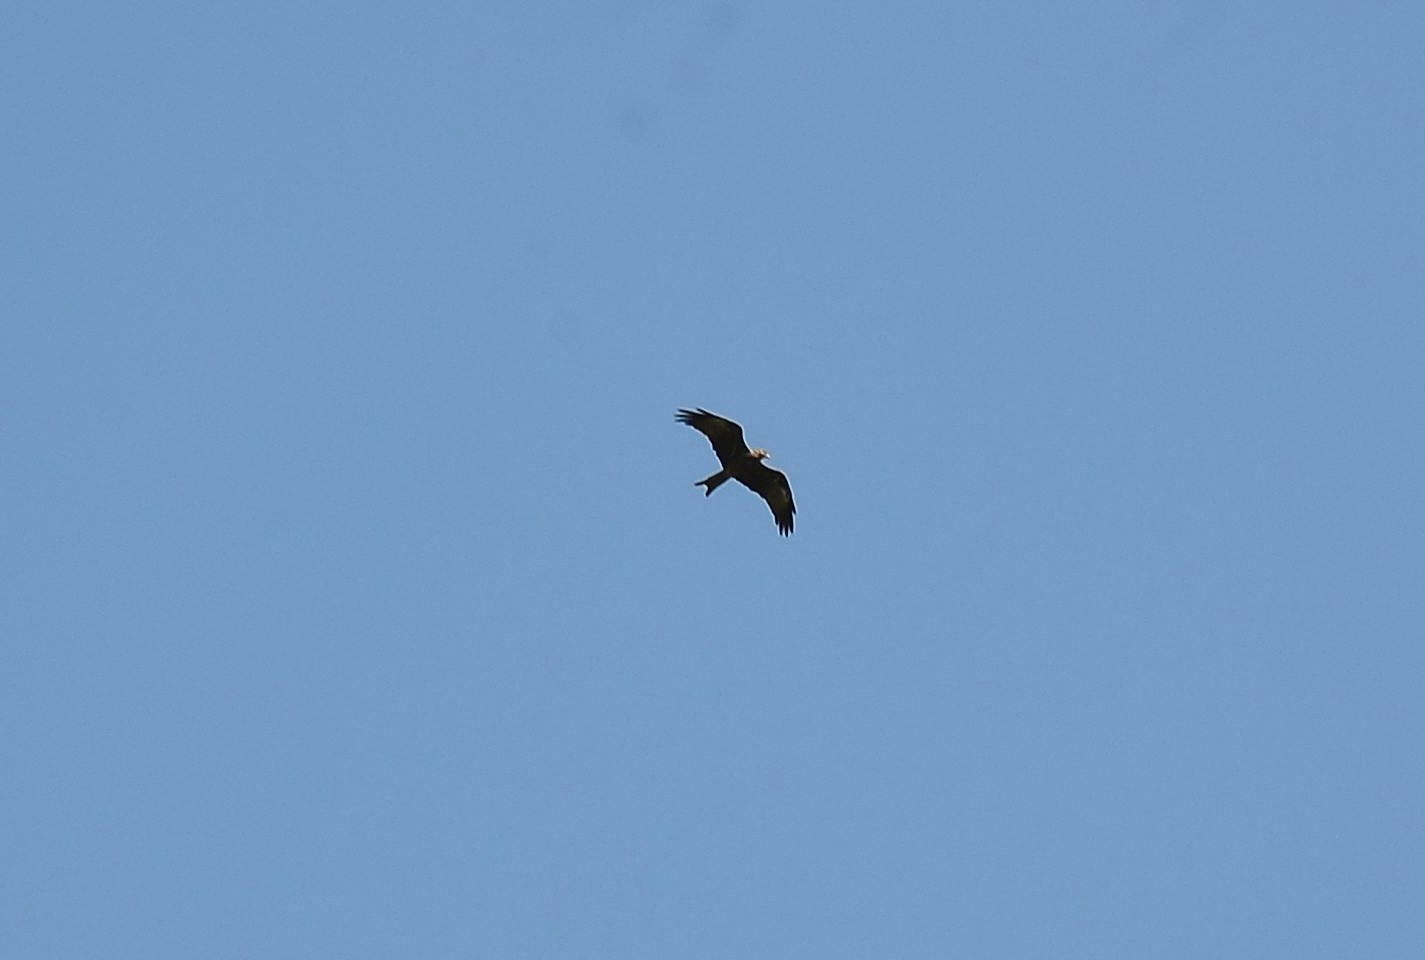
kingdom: Animalia
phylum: Chordata
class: Aves
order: Accipitriformes
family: Accipitridae
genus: Milvus
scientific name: Milvus migrans
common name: Black kite
